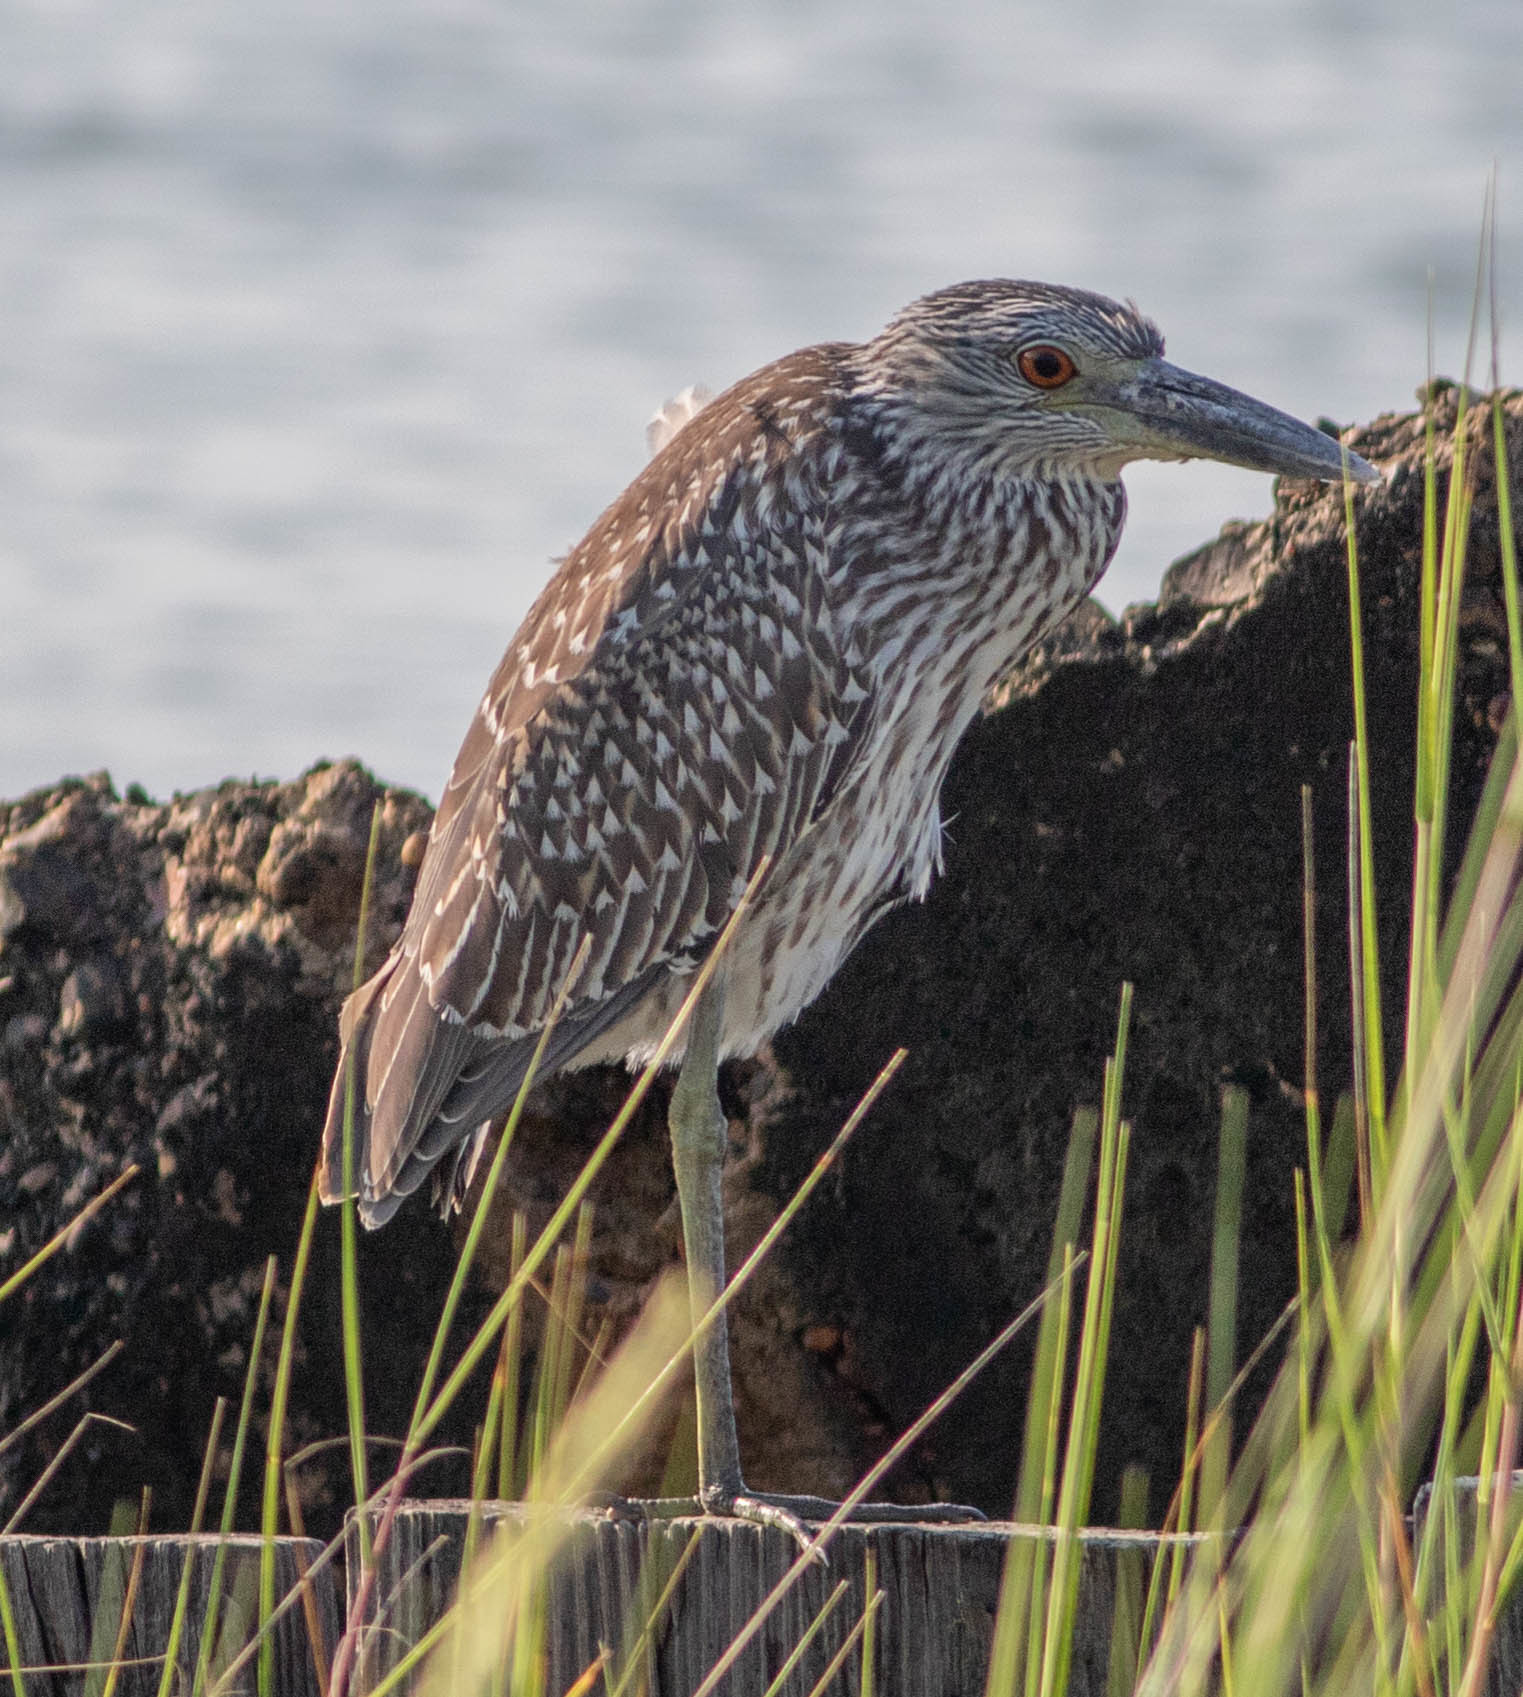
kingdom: Animalia
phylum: Chordata
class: Aves
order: Pelecaniformes
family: Ardeidae
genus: Nyctanassa
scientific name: Nyctanassa violacea
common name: Yellow-crowned night heron
